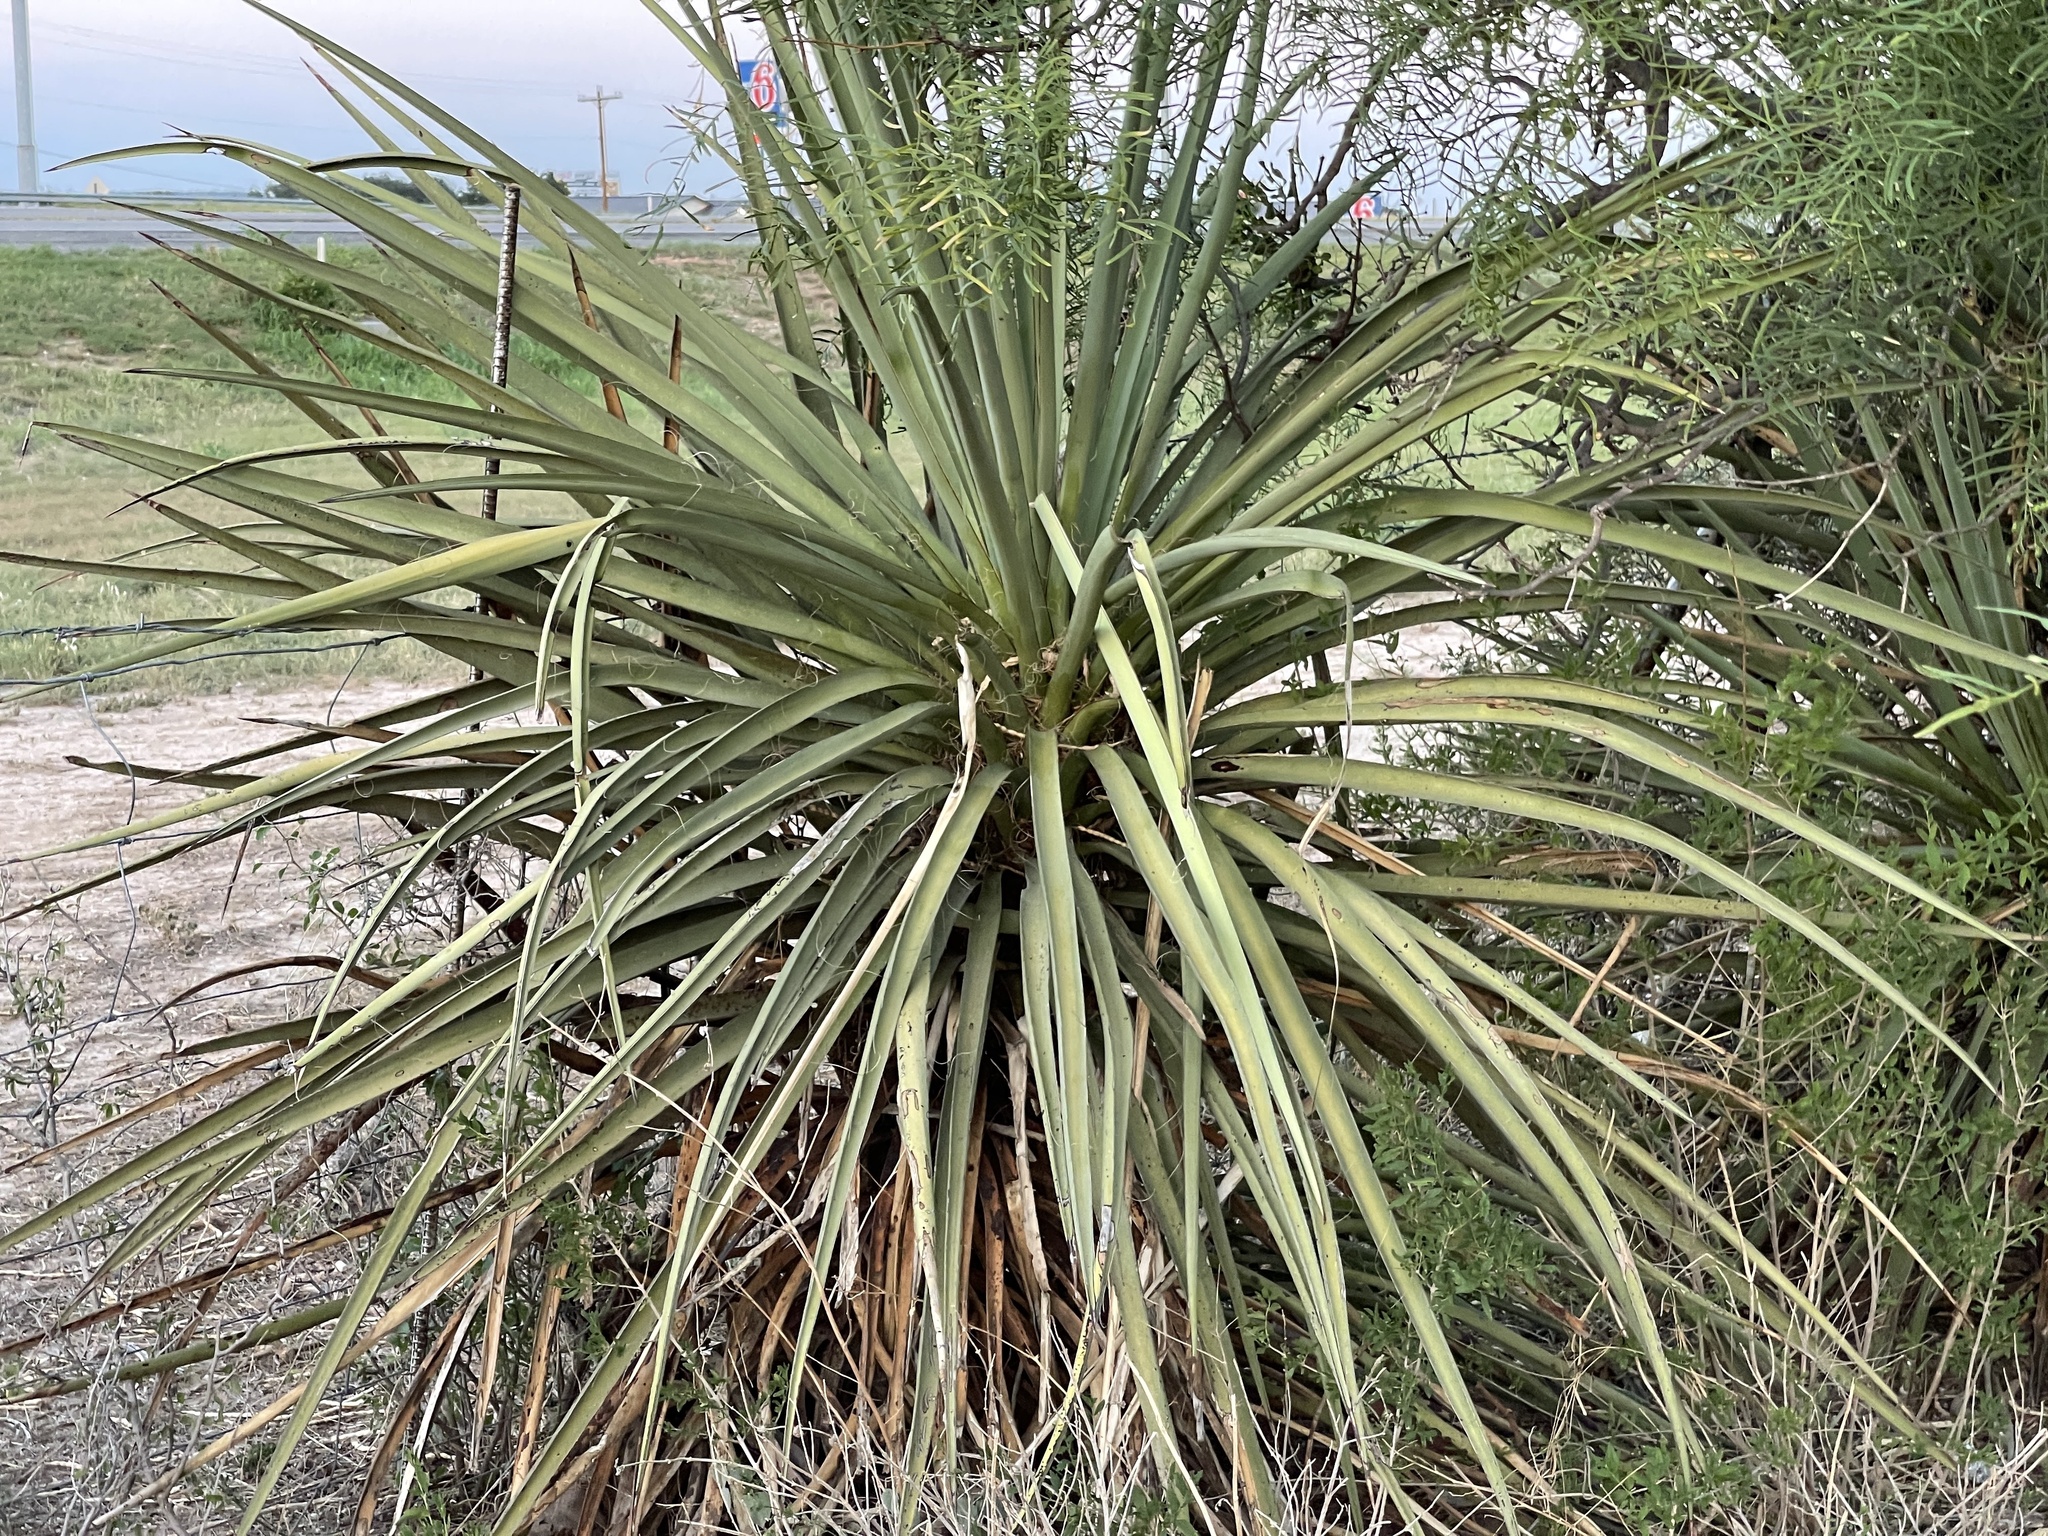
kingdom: Plantae
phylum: Tracheophyta
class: Liliopsida
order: Asparagales
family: Asparagaceae
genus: Yucca
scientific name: Yucca treculiana
